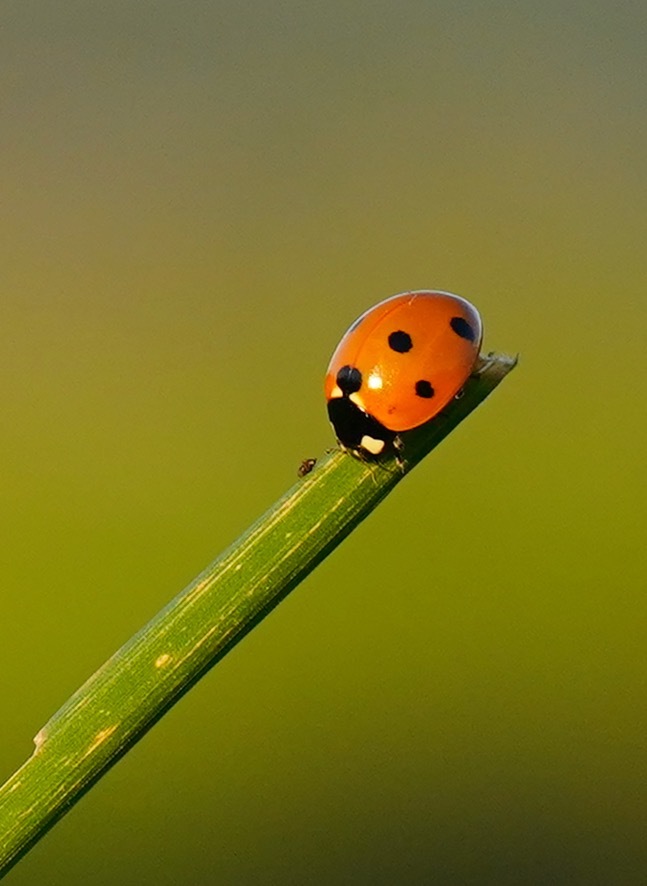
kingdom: Animalia
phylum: Arthropoda
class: Insecta
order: Coleoptera
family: Coccinellidae
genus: Coccinella
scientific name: Coccinella septempunctata
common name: Sevenspotted lady beetle
